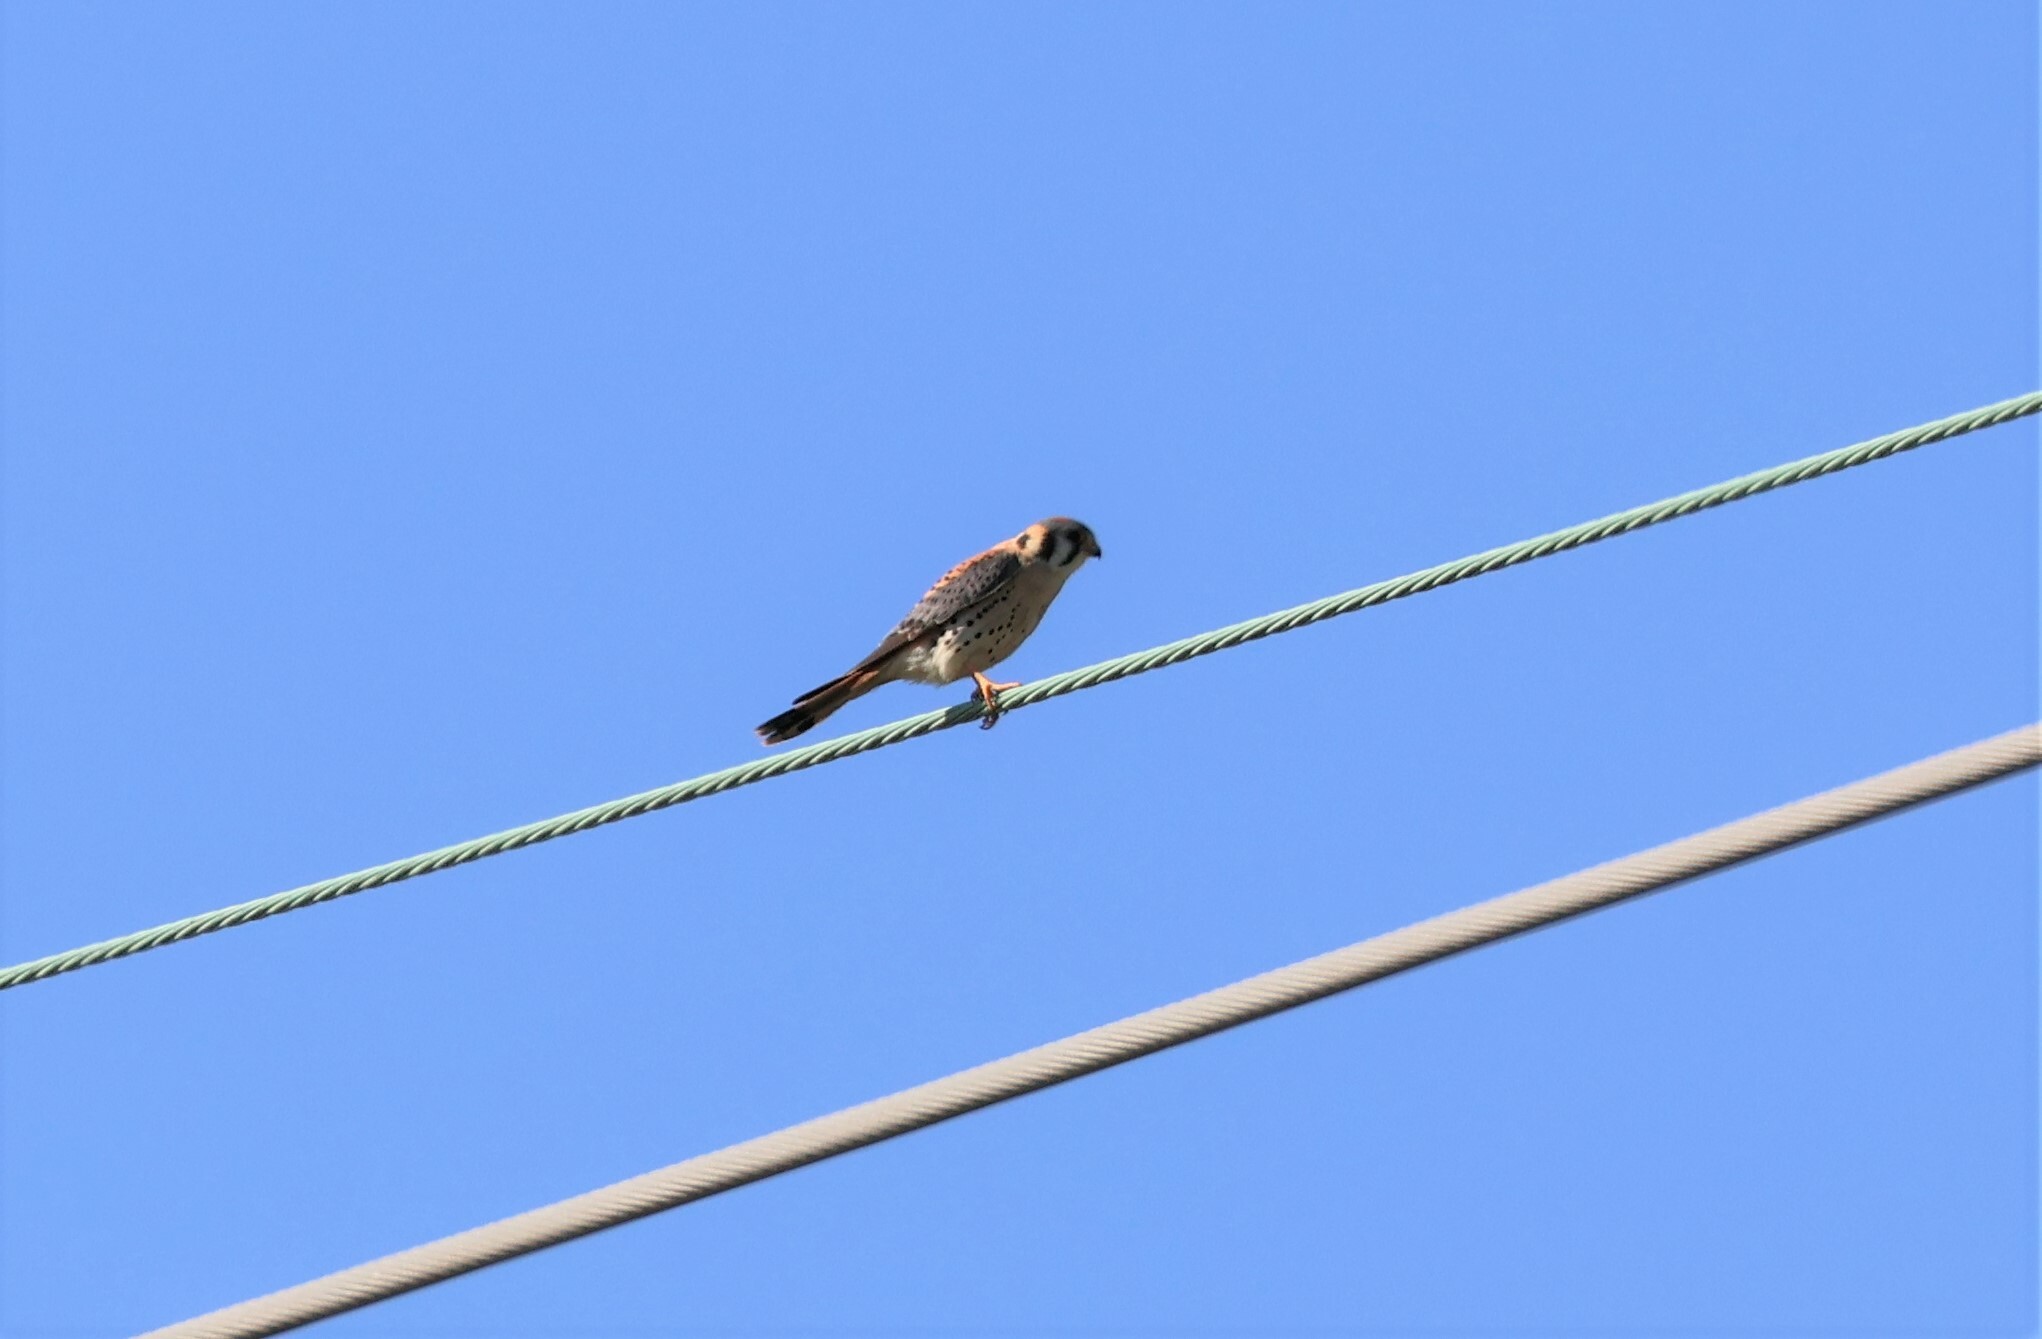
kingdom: Animalia
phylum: Chordata
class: Aves
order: Falconiformes
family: Falconidae
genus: Falco
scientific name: Falco sparverius
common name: American kestrel
